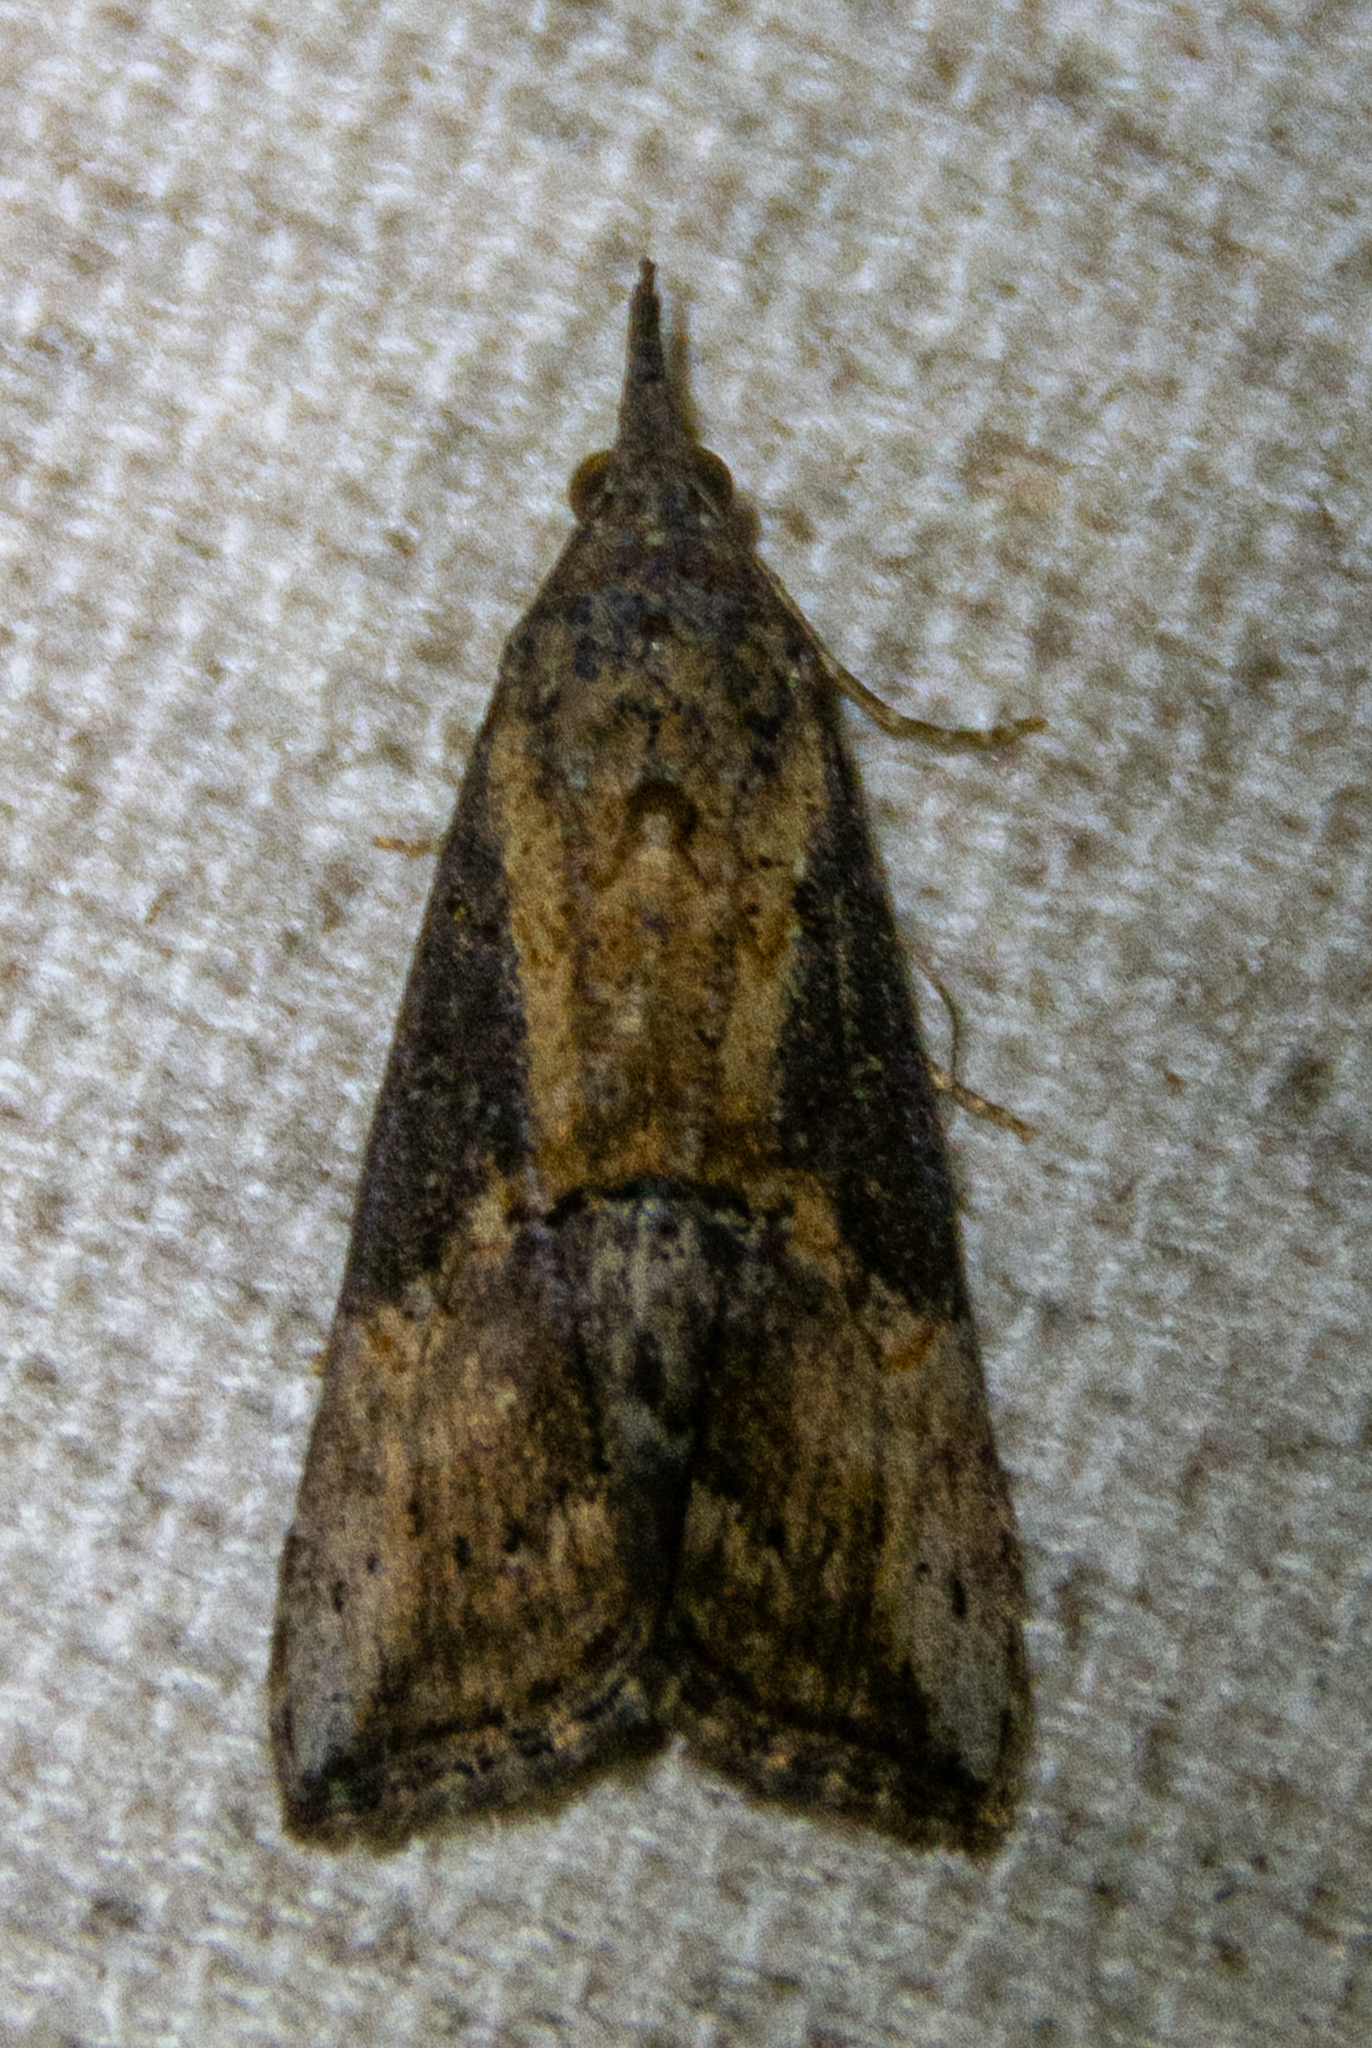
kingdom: Animalia
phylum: Arthropoda
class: Insecta
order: Lepidoptera
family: Erebidae
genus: Hypena
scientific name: Hypena scabra
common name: Green cloverworm
